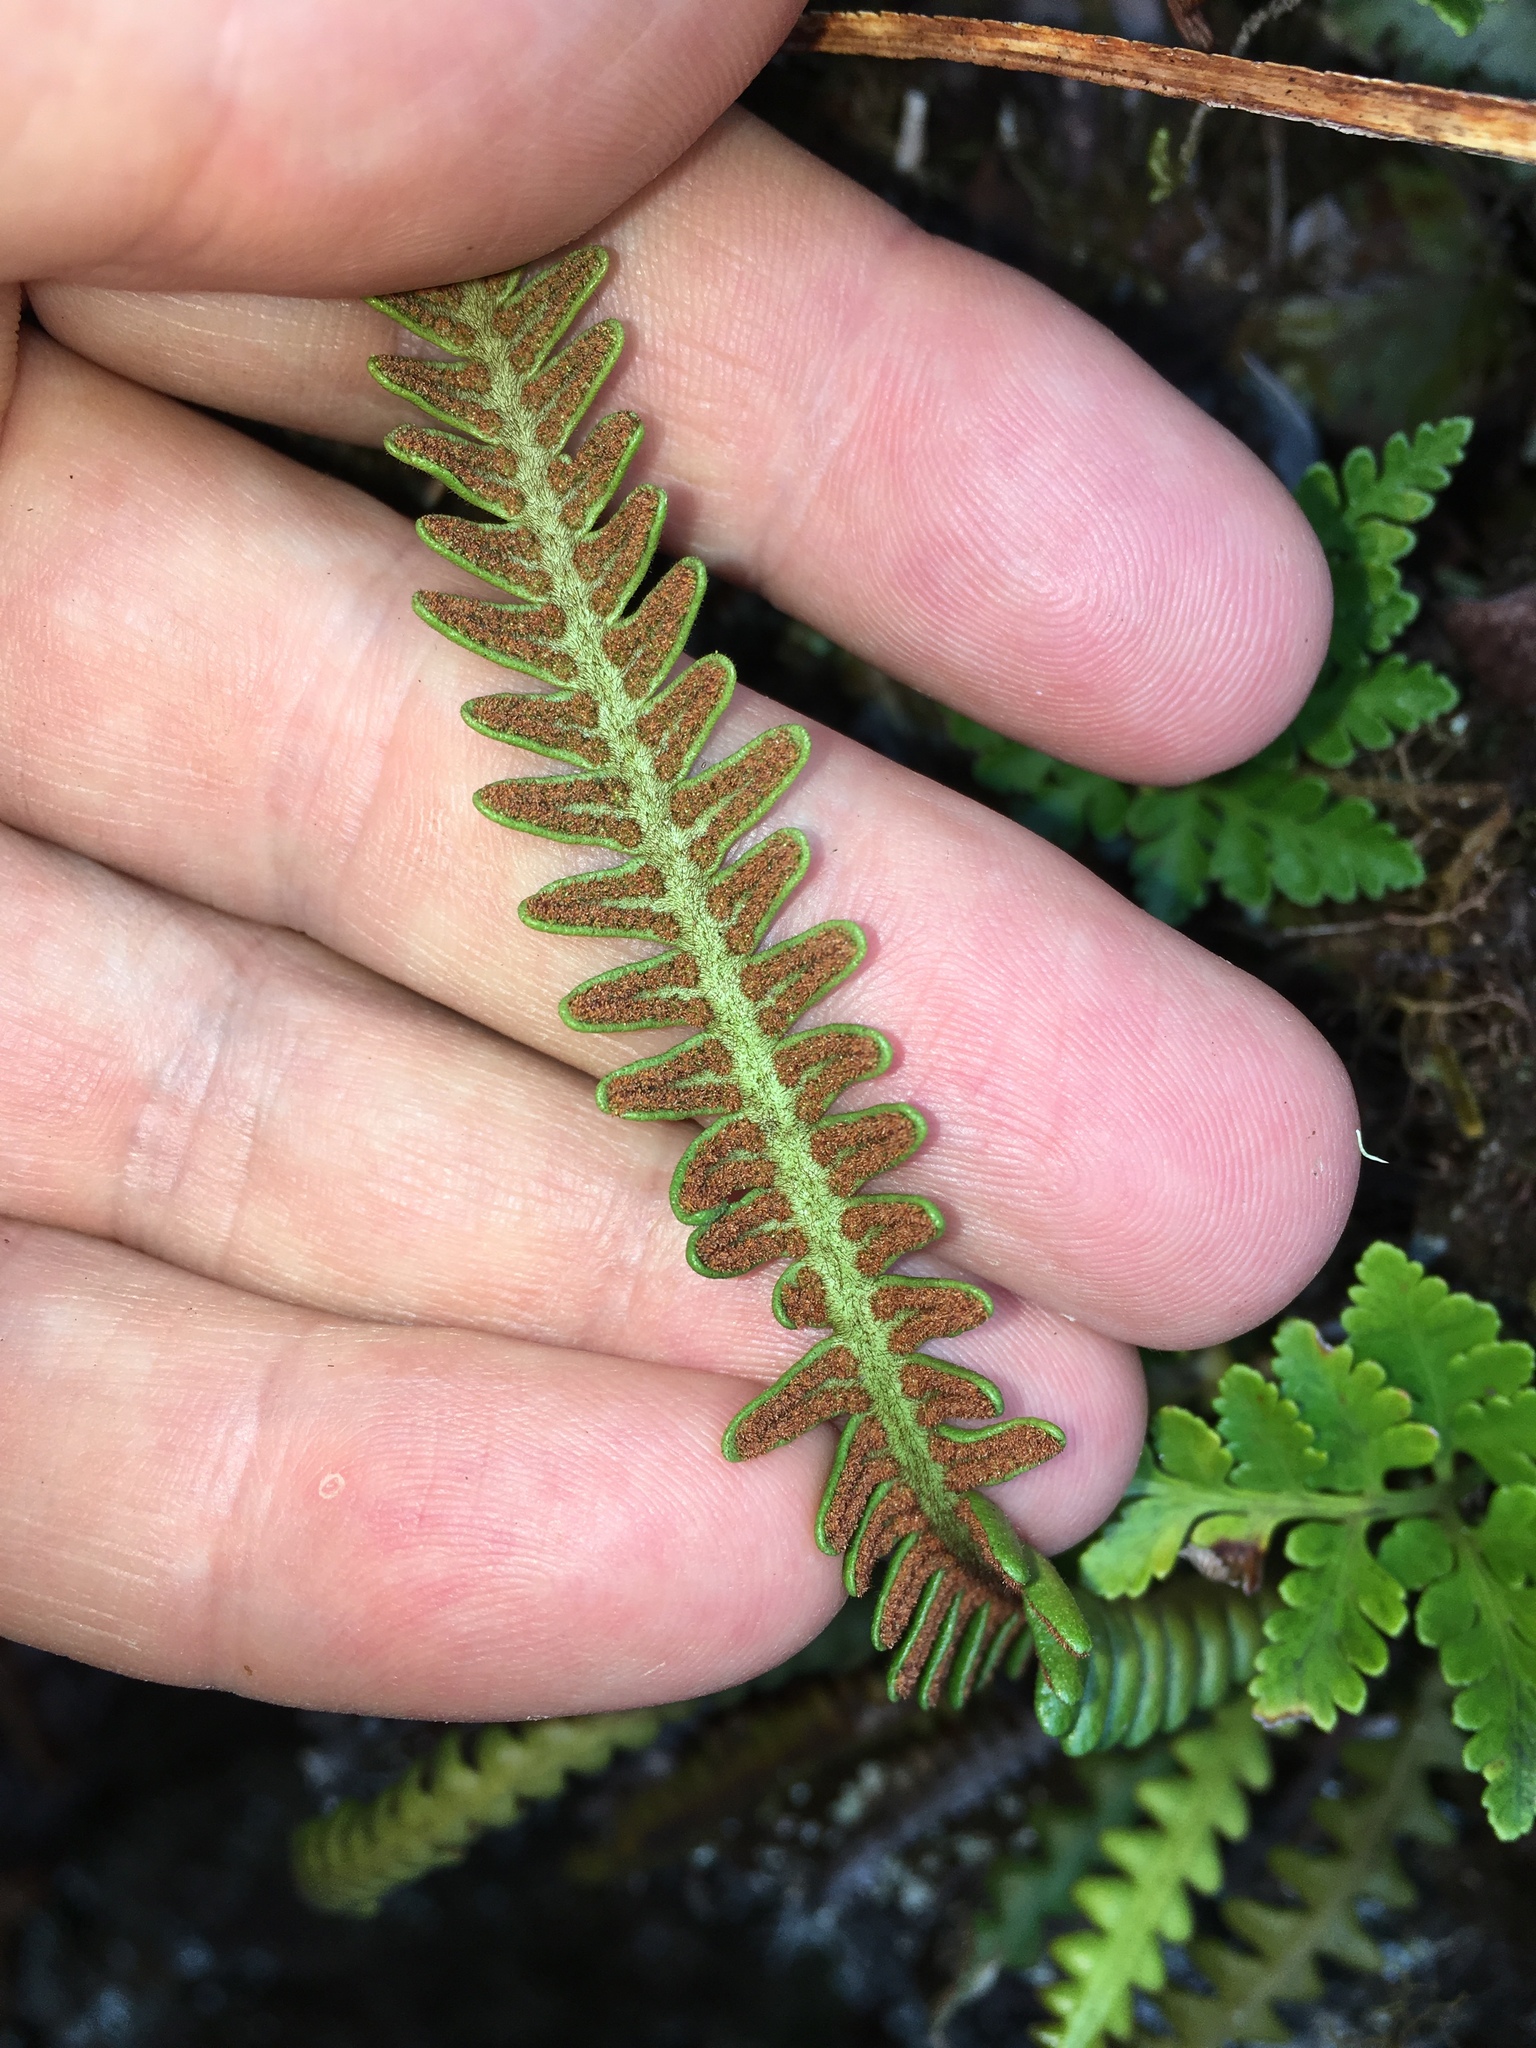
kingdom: Plantae
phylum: Tracheophyta
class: Polypodiopsida
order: Polypodiales
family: Polypodiaceae
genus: Dasygrammitis
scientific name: Dasygrammitis crassifrons
